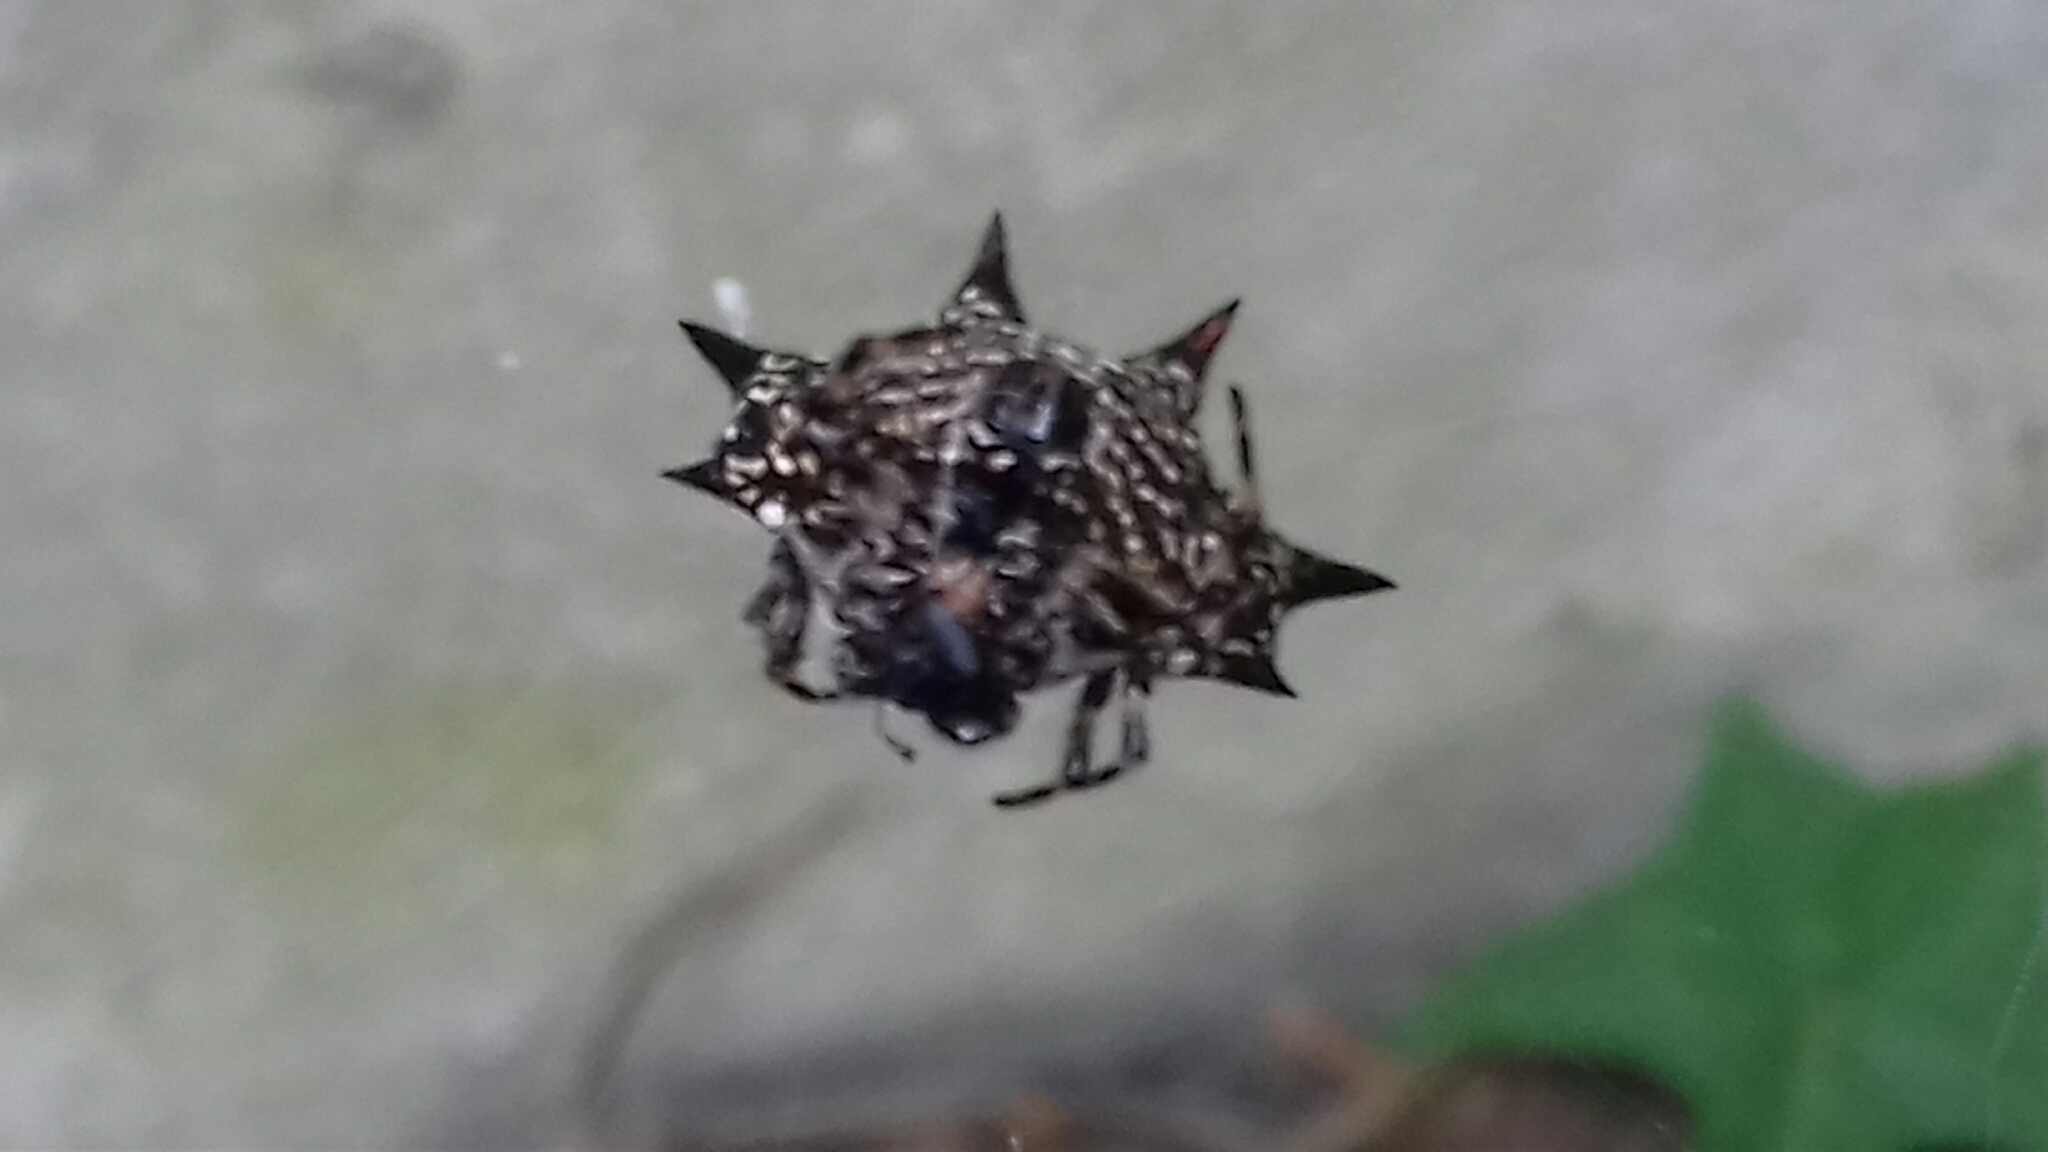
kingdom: Animalia
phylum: Arthropoda
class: Arachnida
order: Araneae
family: Araneidae
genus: Gasteracantha
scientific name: Gasteracantha cancriformis
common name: Orb weavers
